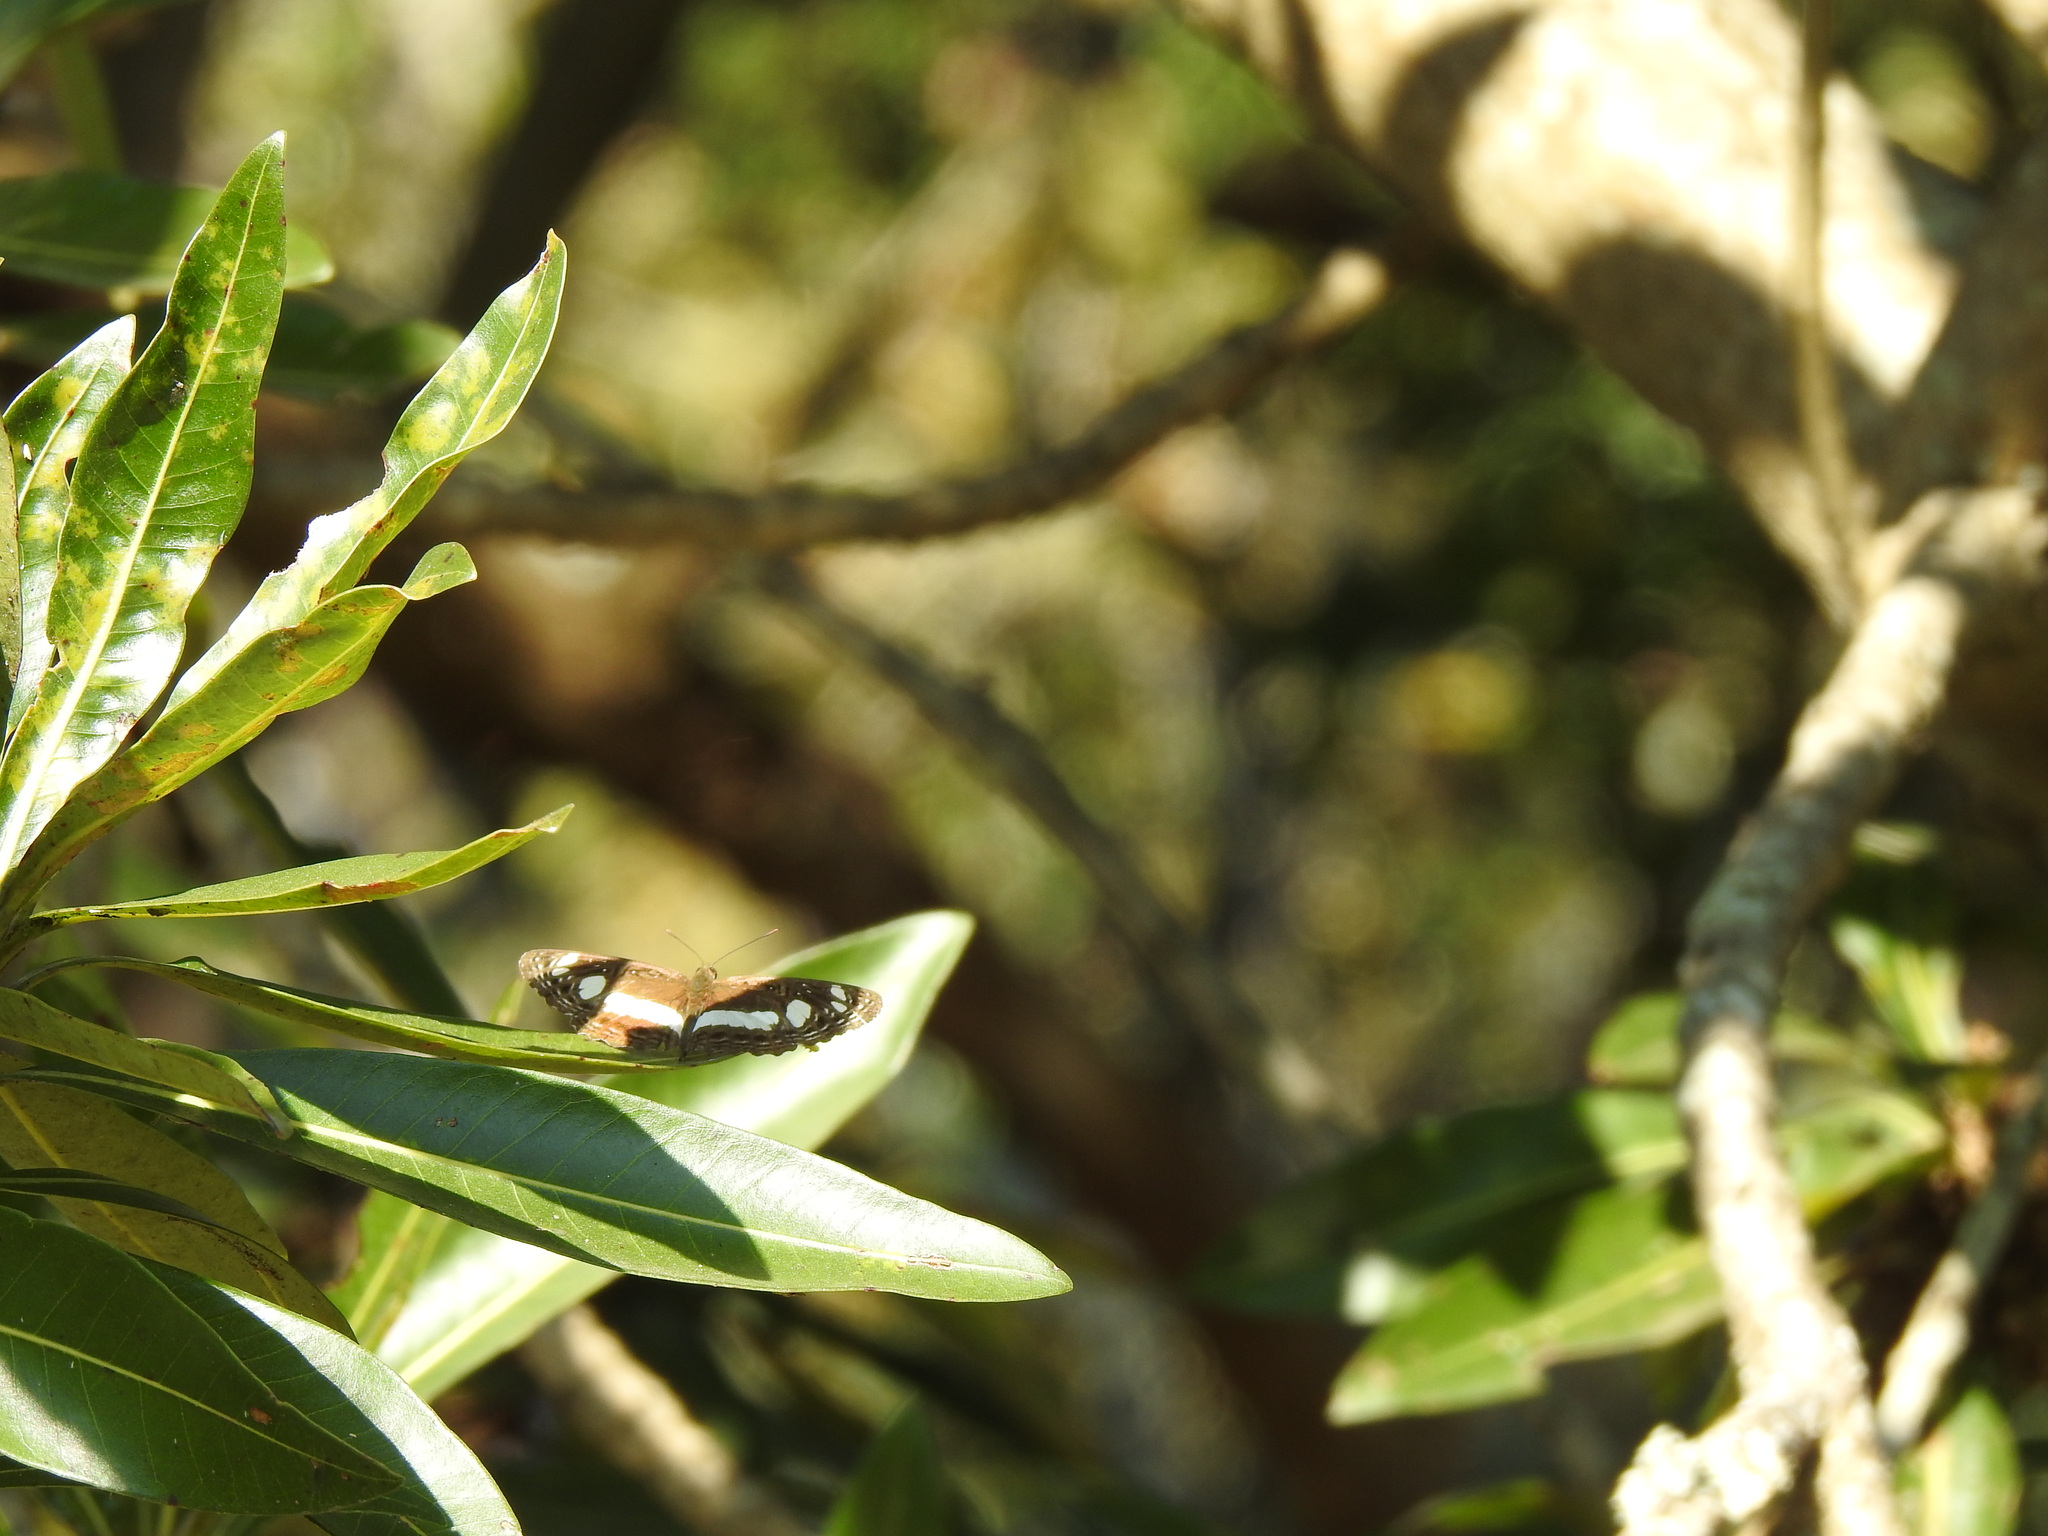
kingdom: Animalia
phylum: Arthropoda
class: Insecta
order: Lepidoptera
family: Nymphalidae
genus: Neptis
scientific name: Neptis saclava
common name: Small spotted sailor
